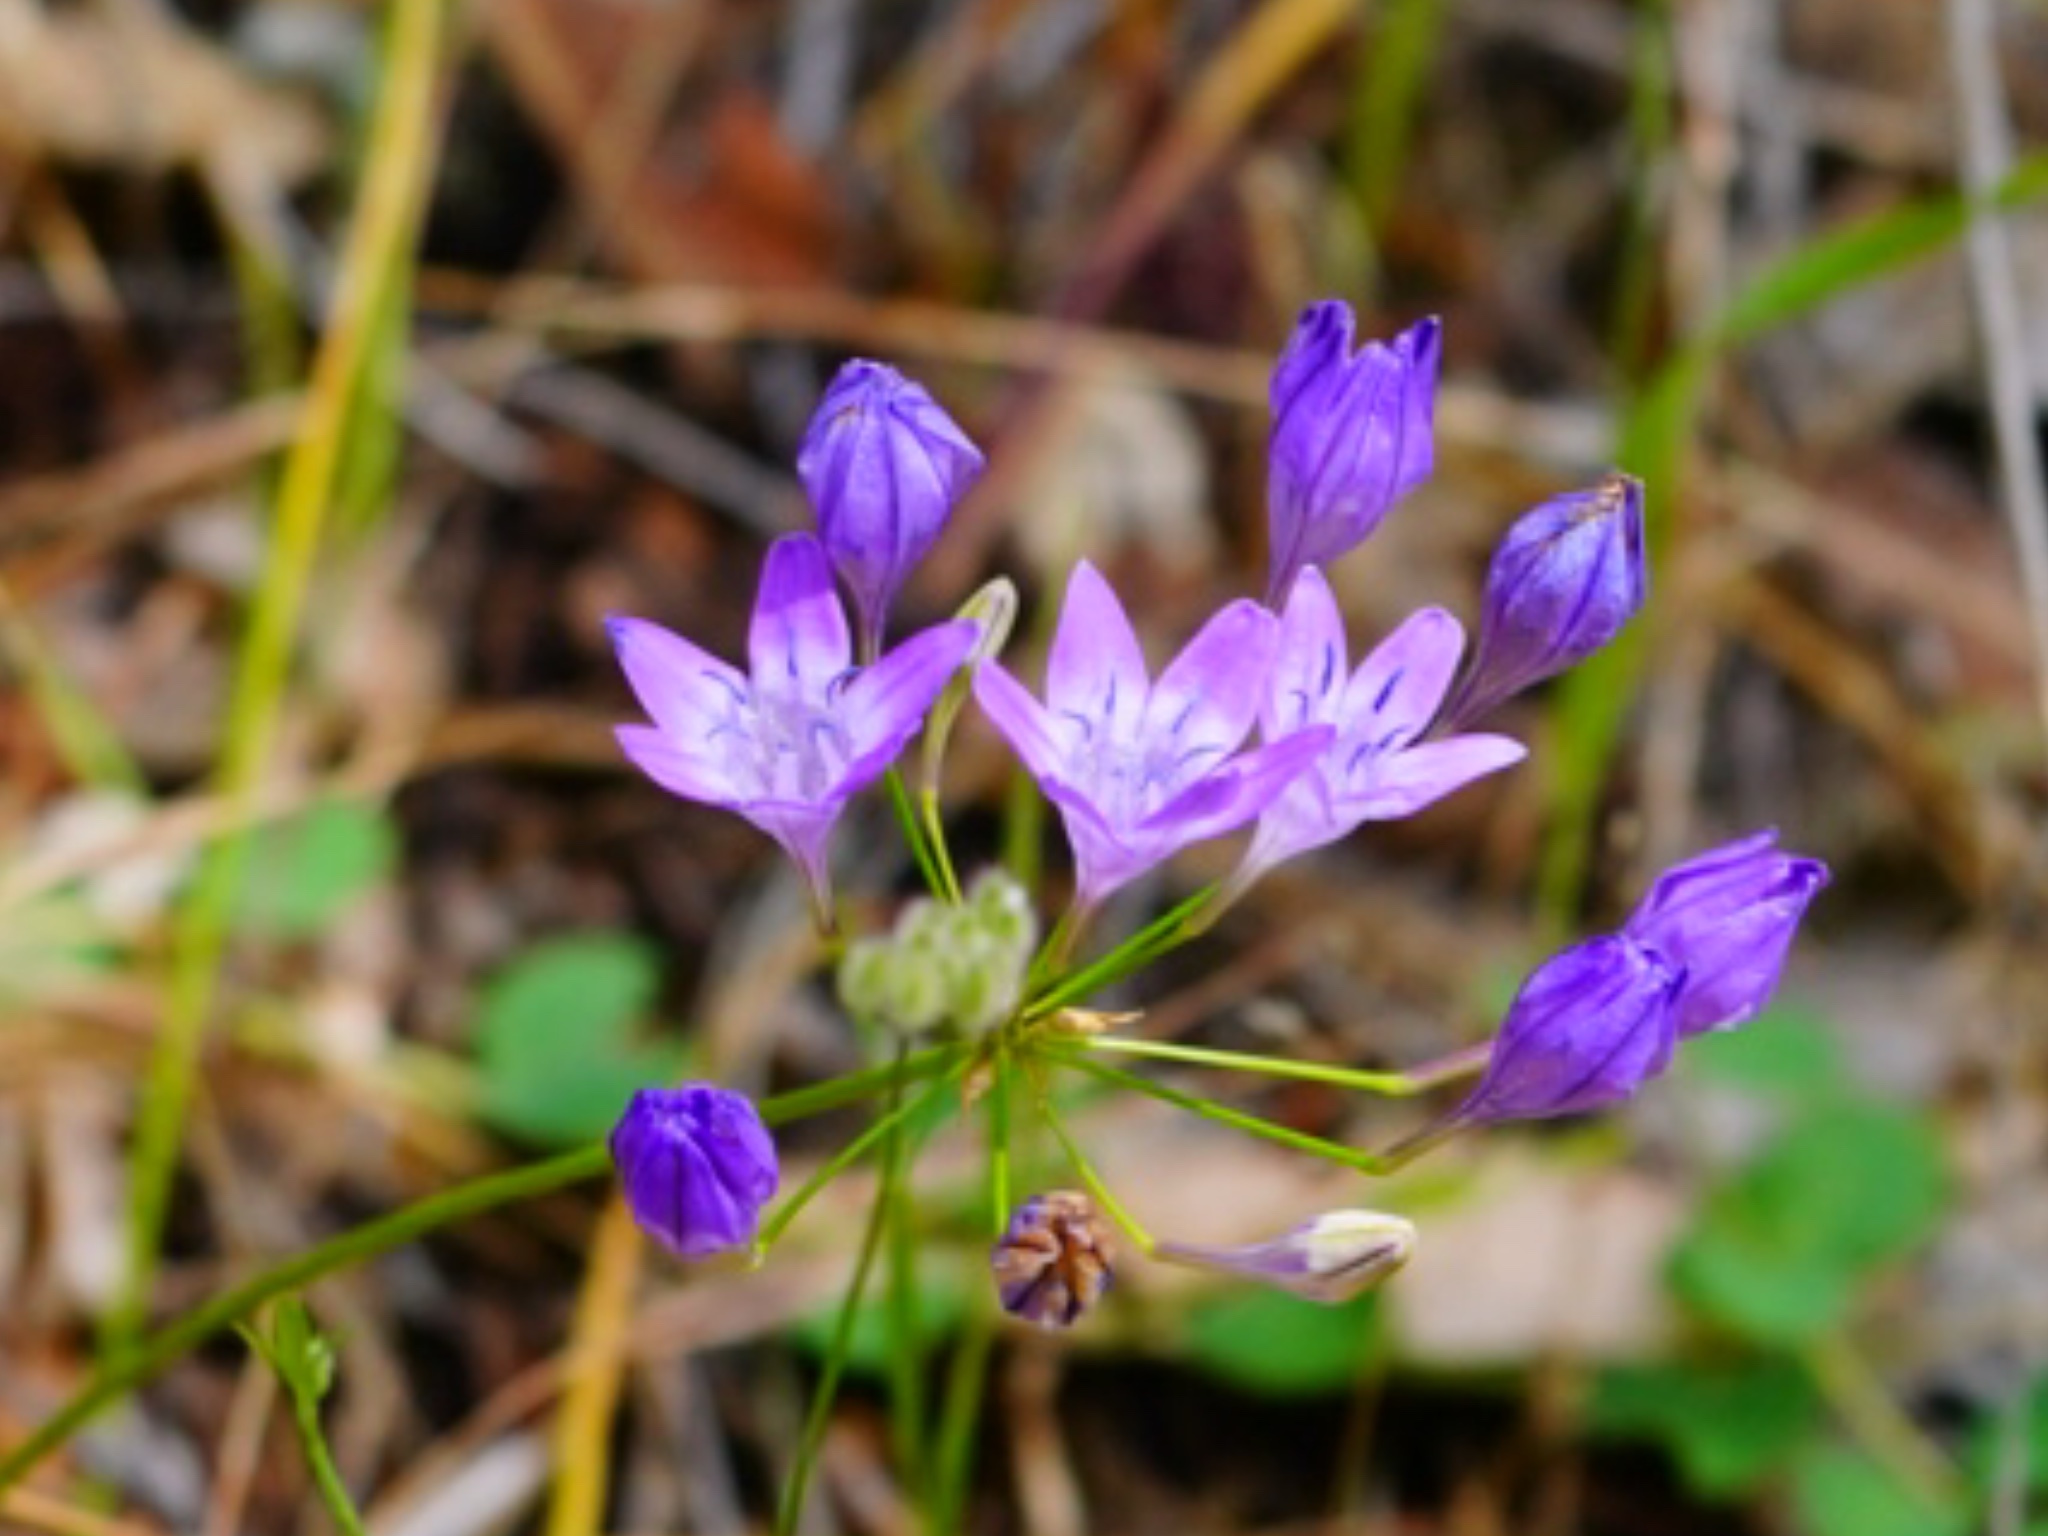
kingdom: Plantae
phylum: Tracheophyta
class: Liliopsida
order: Asparagales
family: Asparagaceae
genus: Triteleia
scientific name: Triteleia bridgesii
